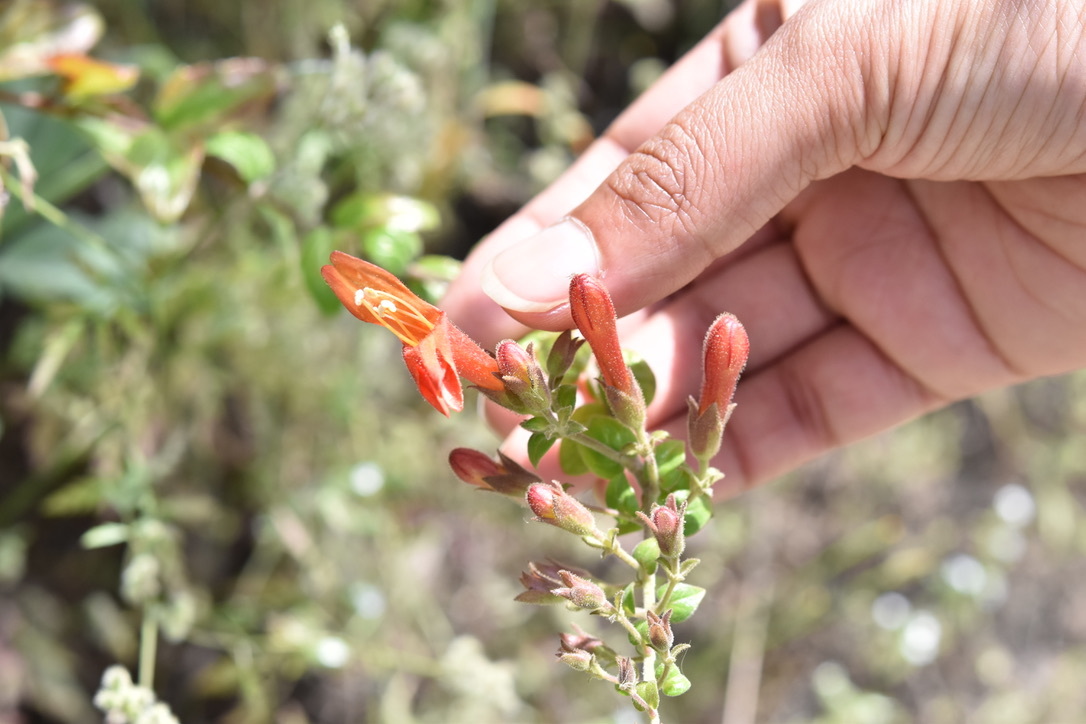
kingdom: Plantae
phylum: Tracheophyta
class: Magnoliopsida
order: Lamiales
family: Plantaginaceae
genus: Keckiella
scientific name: Keckiella cordifolia
